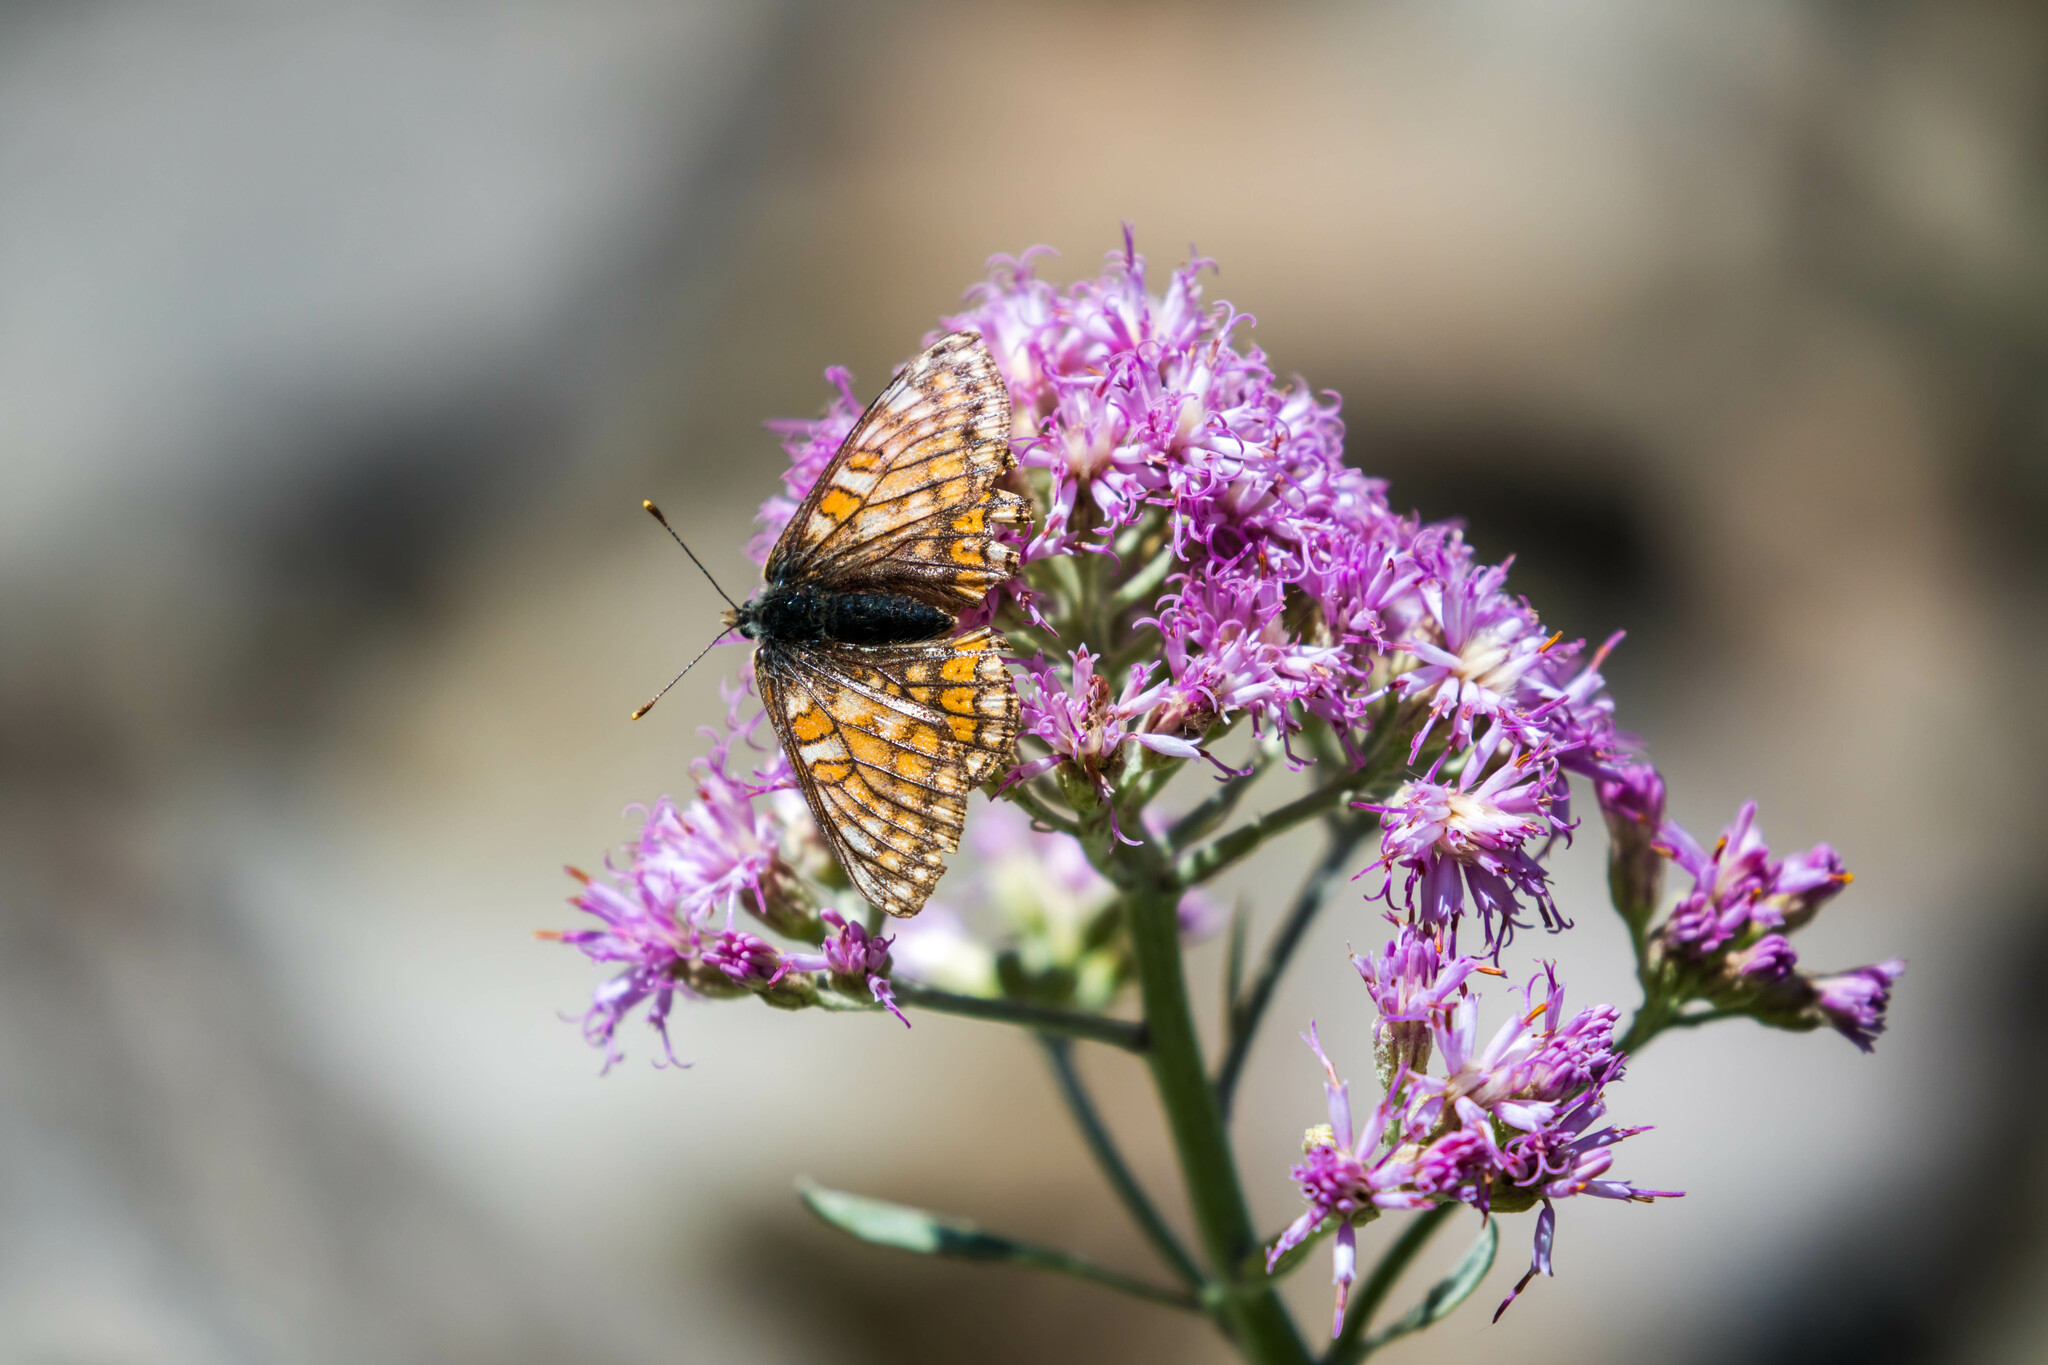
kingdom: Animalia
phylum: Arthropoda
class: Insecta
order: Lepidoptera
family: Nymphalidae
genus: Hypodryas
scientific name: Hypodryas cynthia
